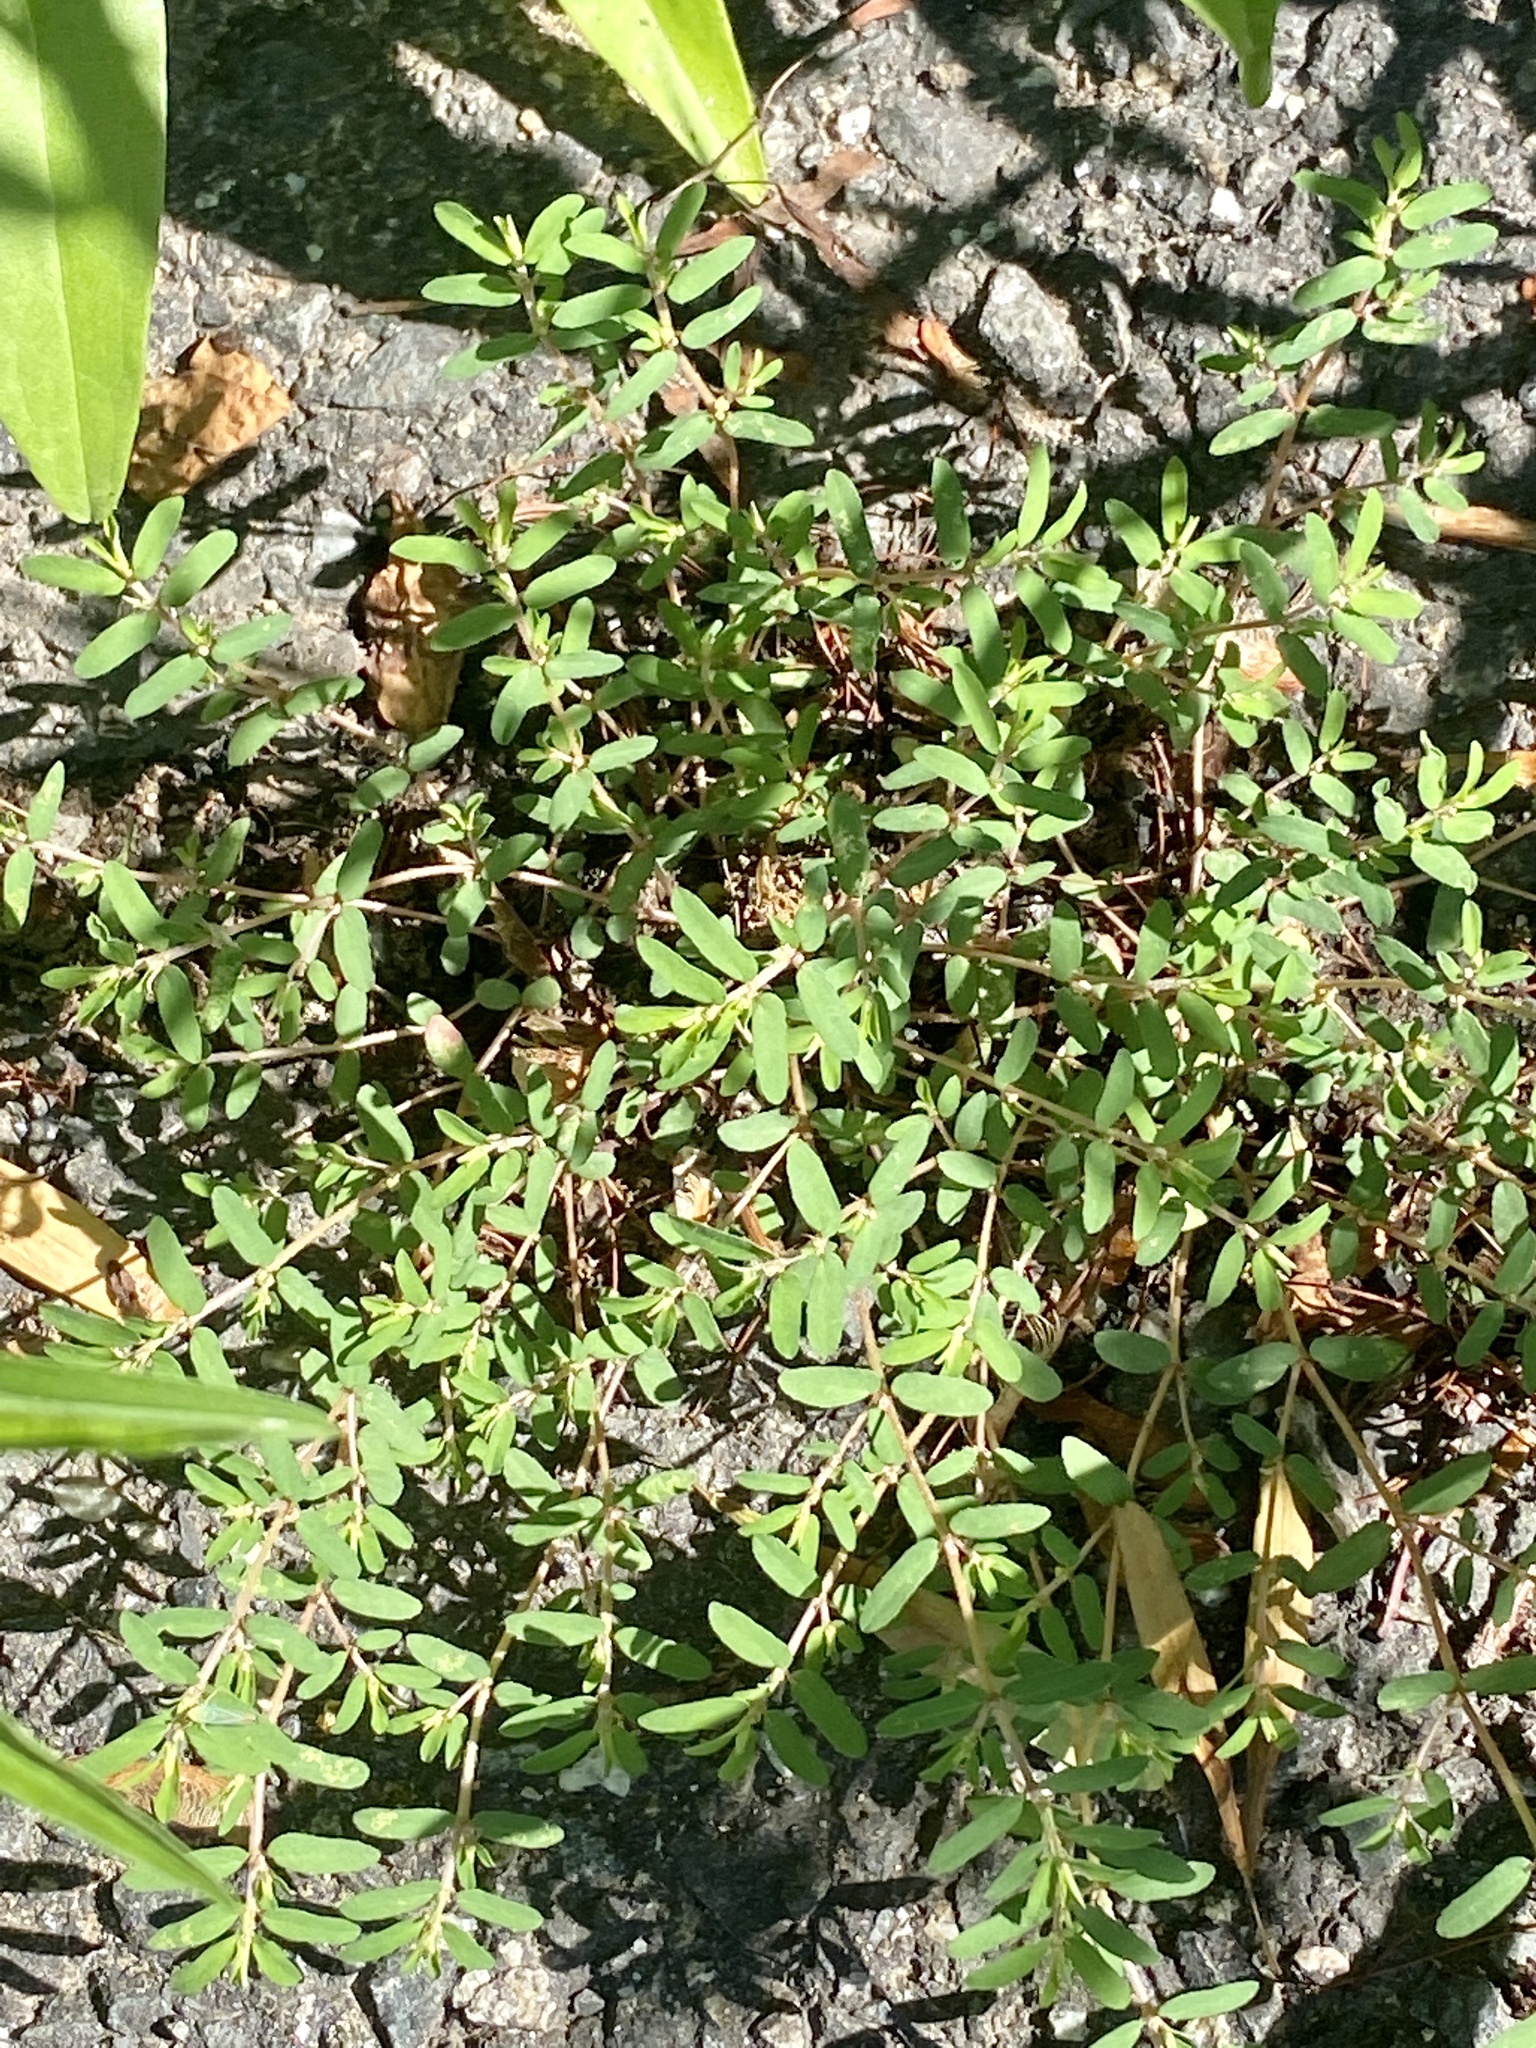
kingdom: Plantae
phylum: Tracheophyta
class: Magnoliopsida
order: Malpighiales
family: Euphorbiaceae
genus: Euphorbia
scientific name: Euphorbia maculata
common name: Spotted spurge
